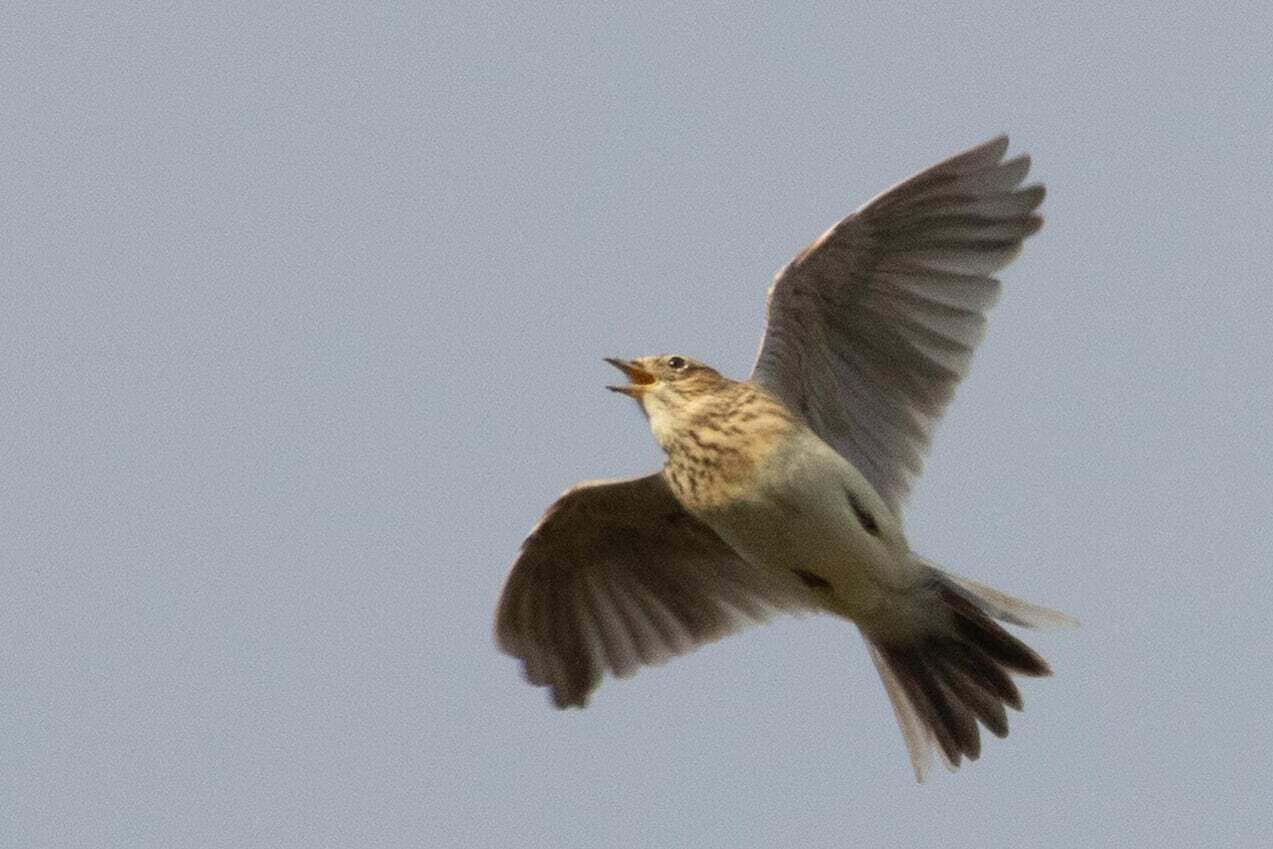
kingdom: Animalia
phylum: Chordata
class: Aves
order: Passeriformes
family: Alaudidae
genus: Alauda
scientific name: Alauda arvensis
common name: Eurasian skylark
